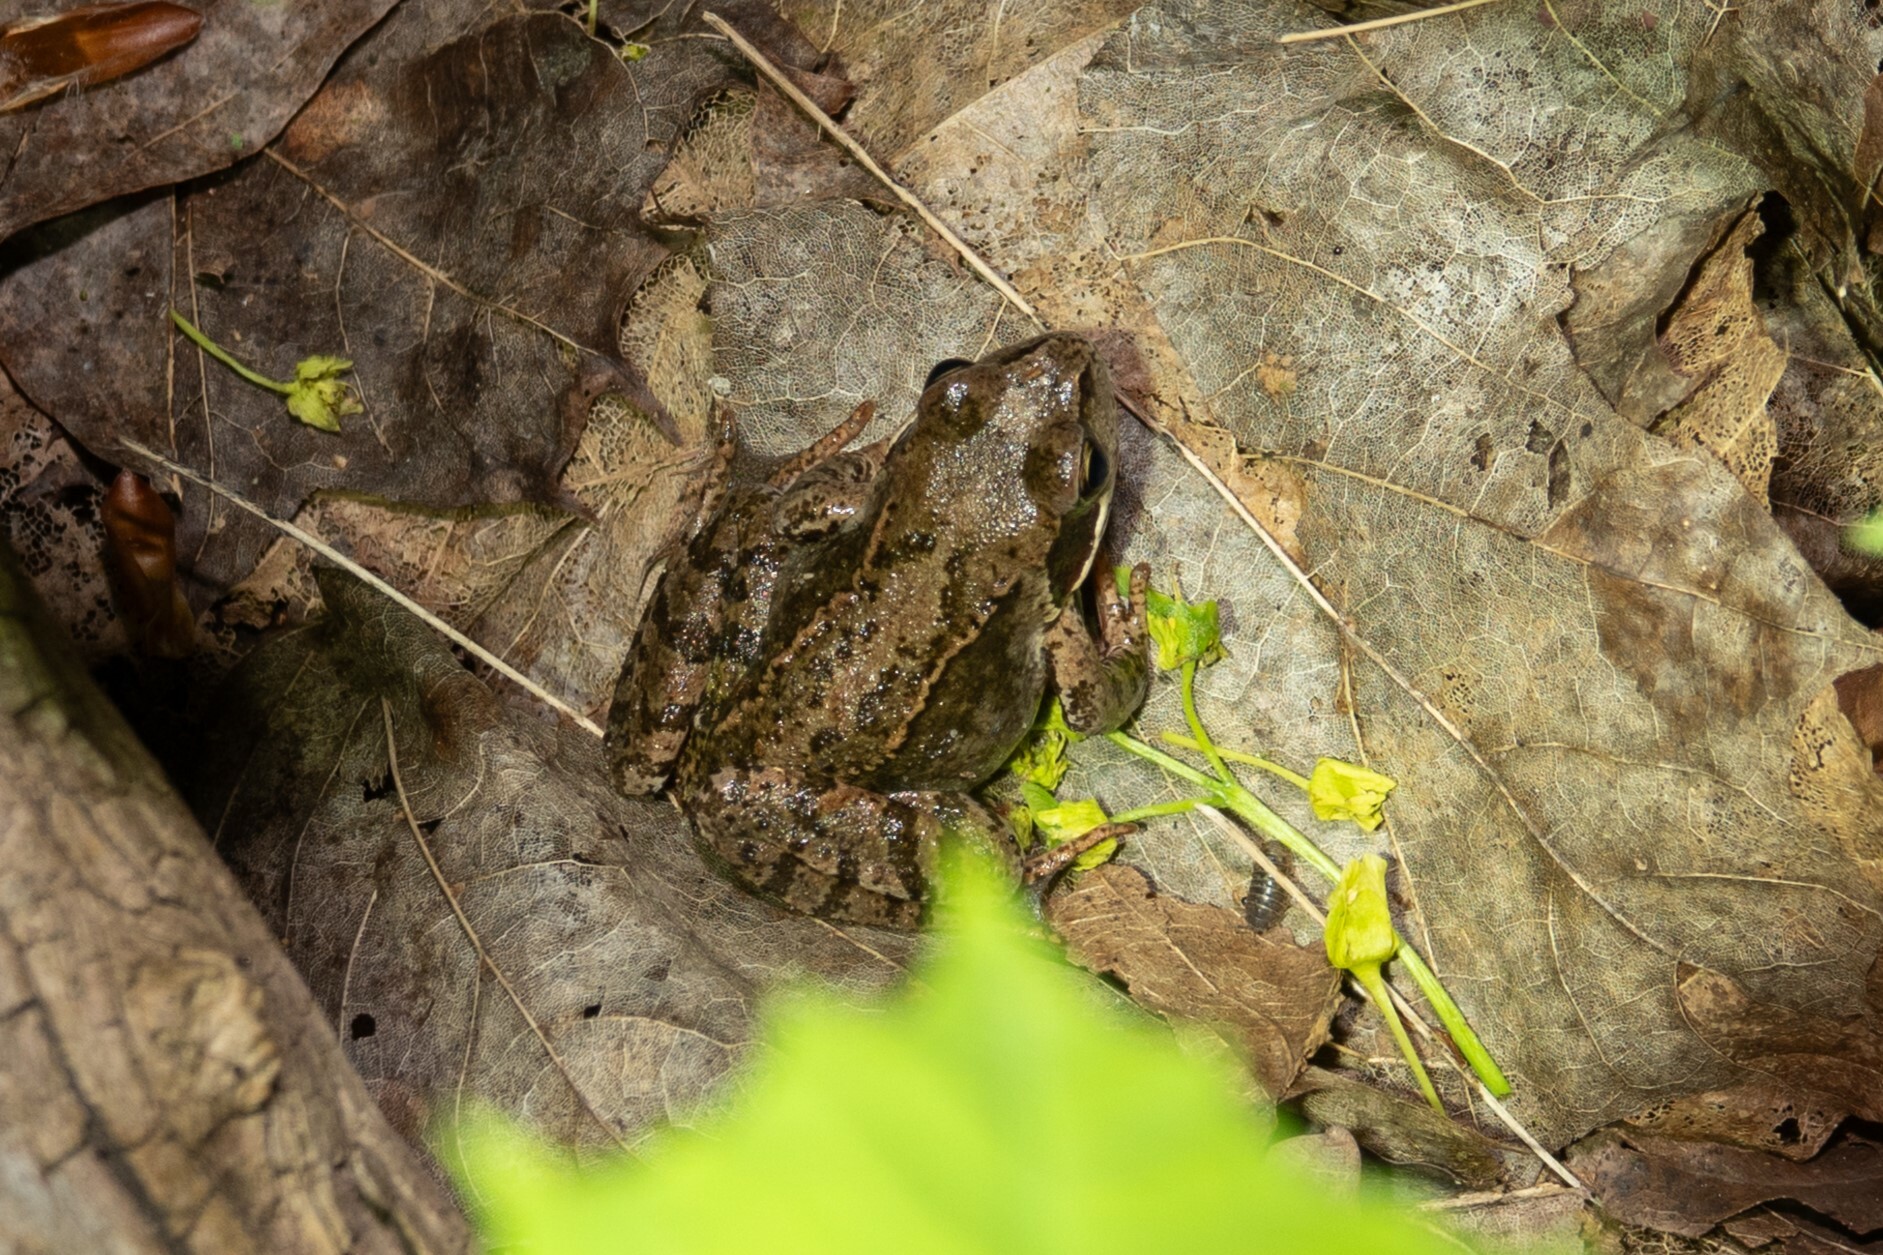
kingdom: Animalia
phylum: Chordata
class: Amphibia
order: Anura
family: Ranidae
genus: Rana
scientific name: Rana temporaria
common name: Common frog
